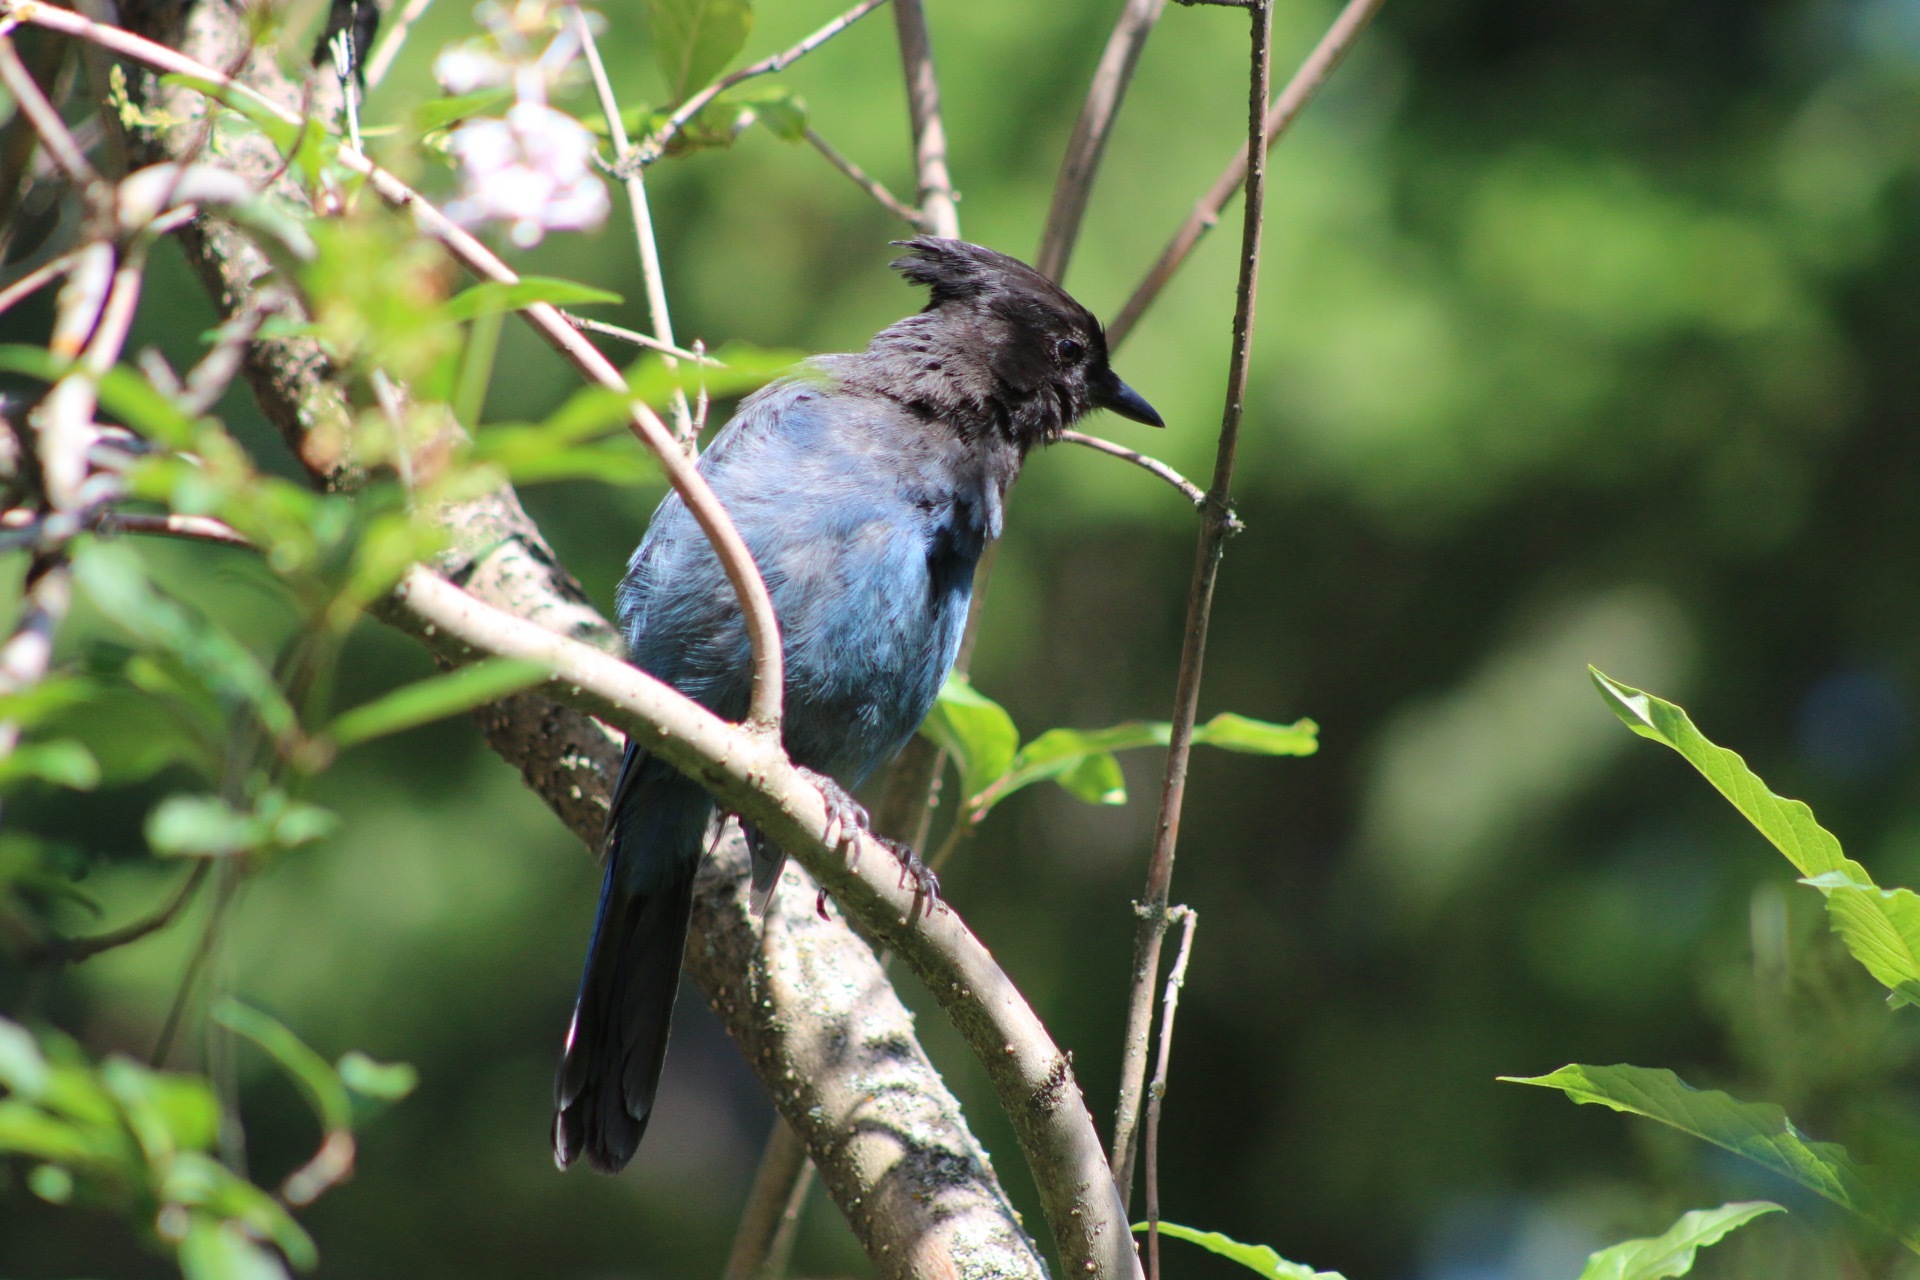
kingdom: Animalia
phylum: Chordata
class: Aves
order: Passeriformes
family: Corvidae
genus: Cyanocitta
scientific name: Cyanocitta stelleri
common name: Steller's jay
